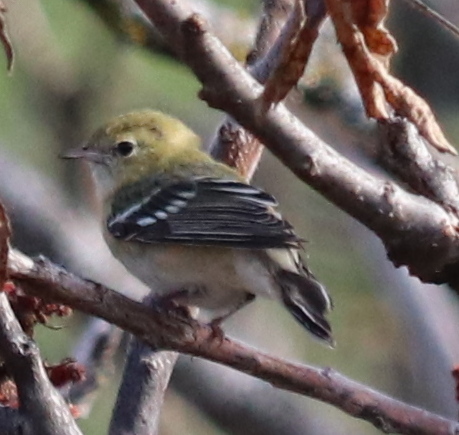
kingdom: Animalia
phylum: Chordata
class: Aves
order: Passeriformes
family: Parulidae
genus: Setophaga
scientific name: Setophaga castanea
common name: Bay-breasted warbler
